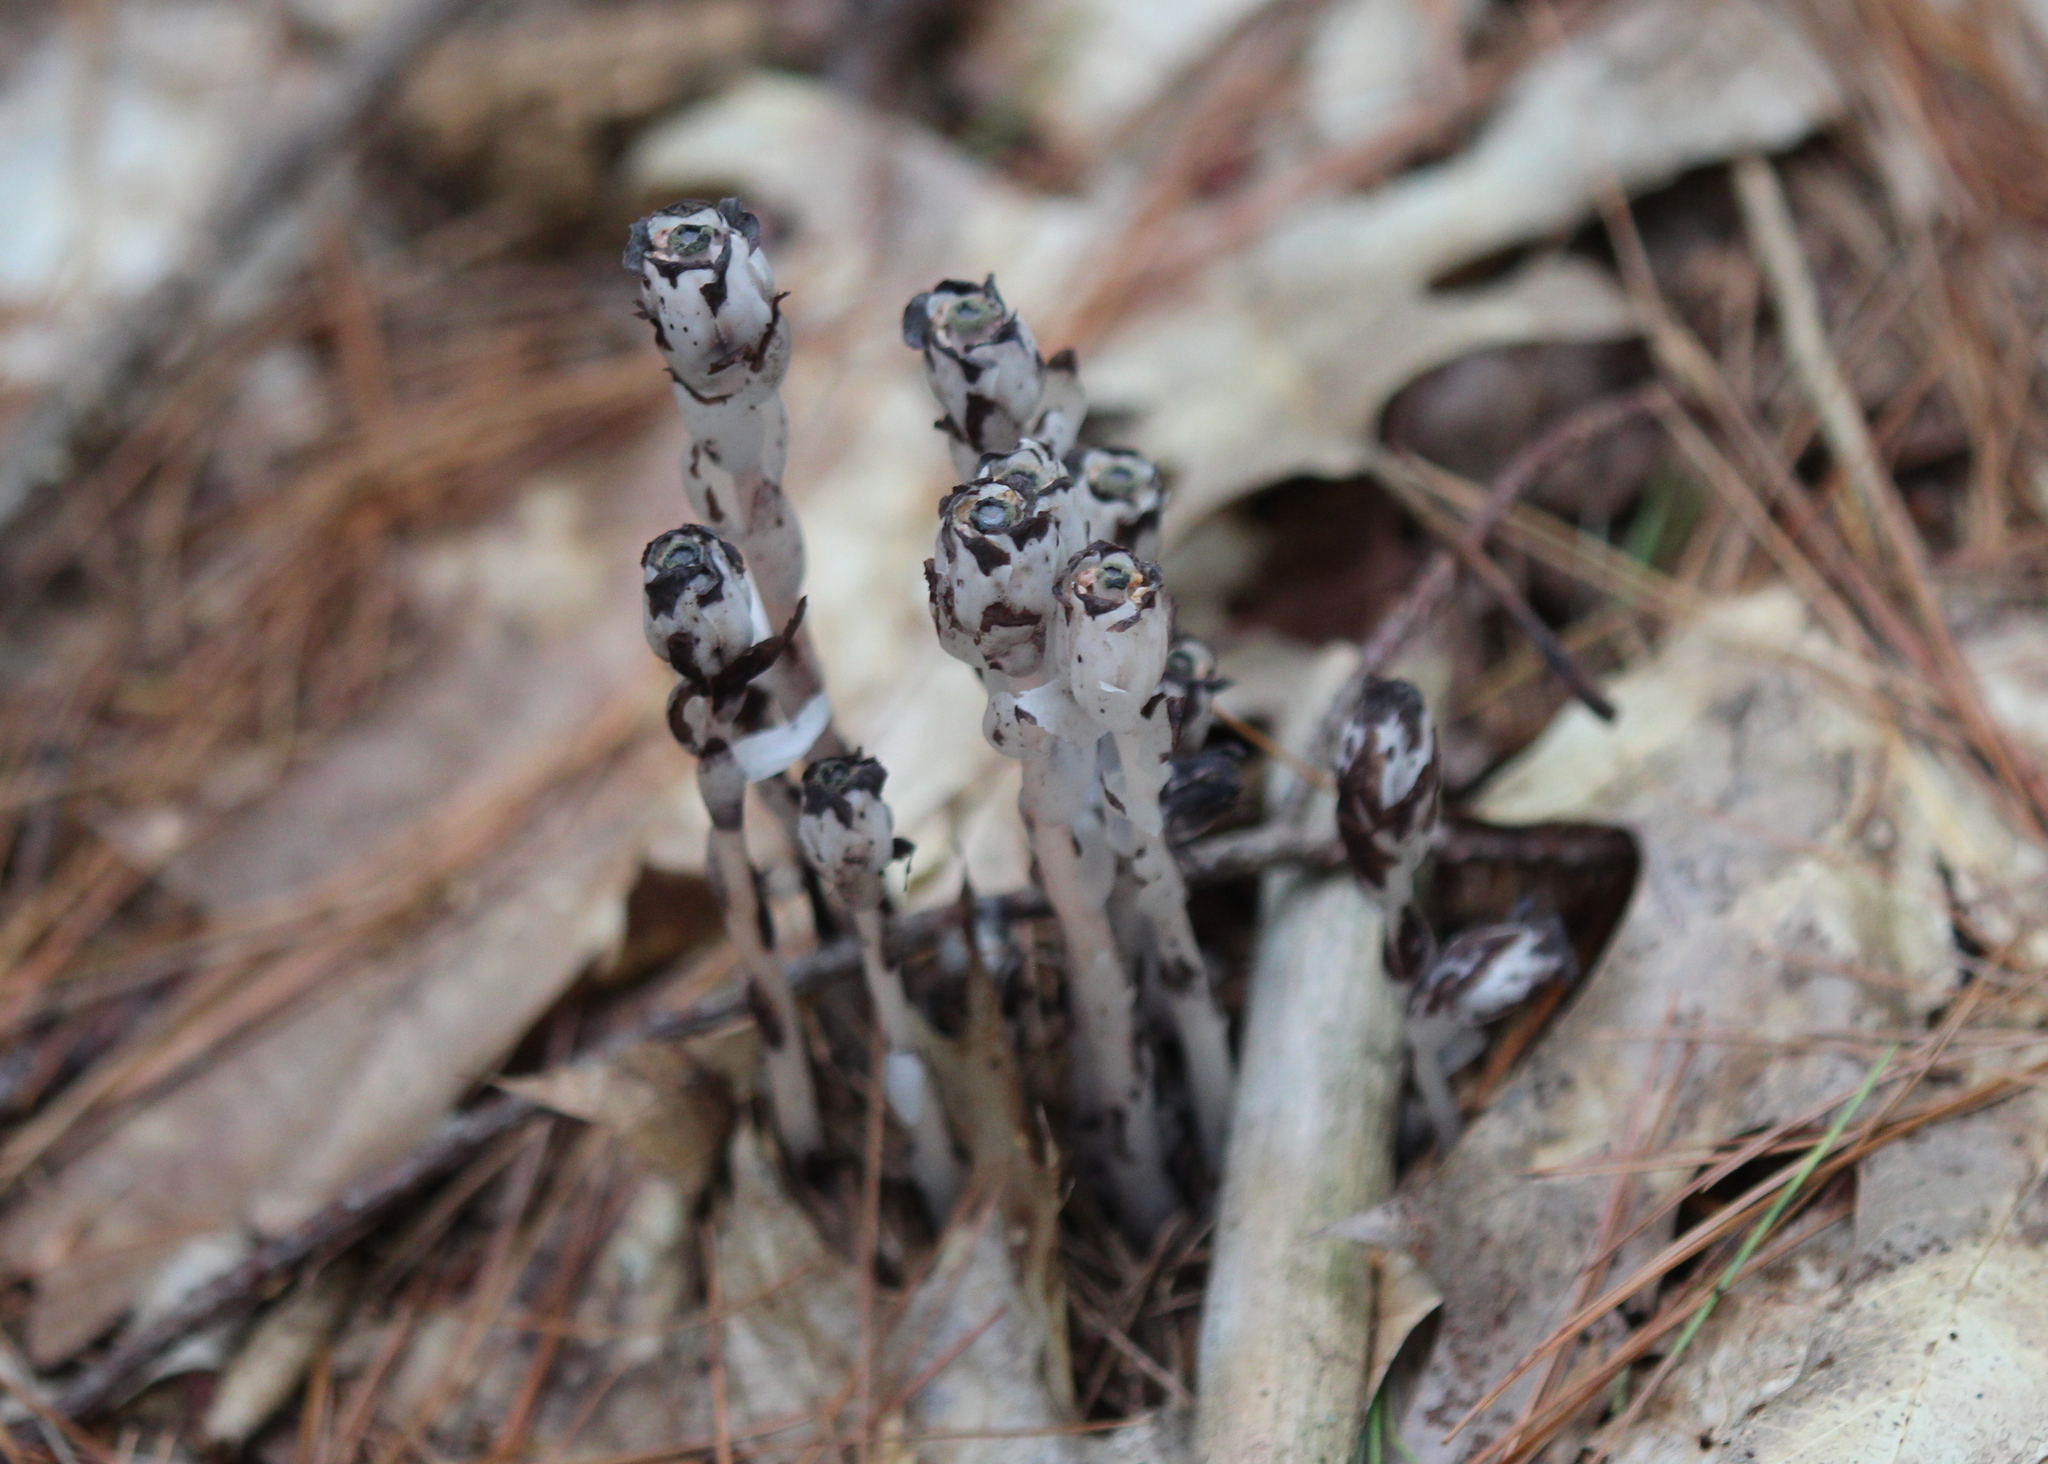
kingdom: Plantae
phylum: Tracheophyta
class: Magnoliopsida
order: Ericales
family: Ericaceae
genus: Monotropa
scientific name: Monotropa uniflora
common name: Convulsion root
